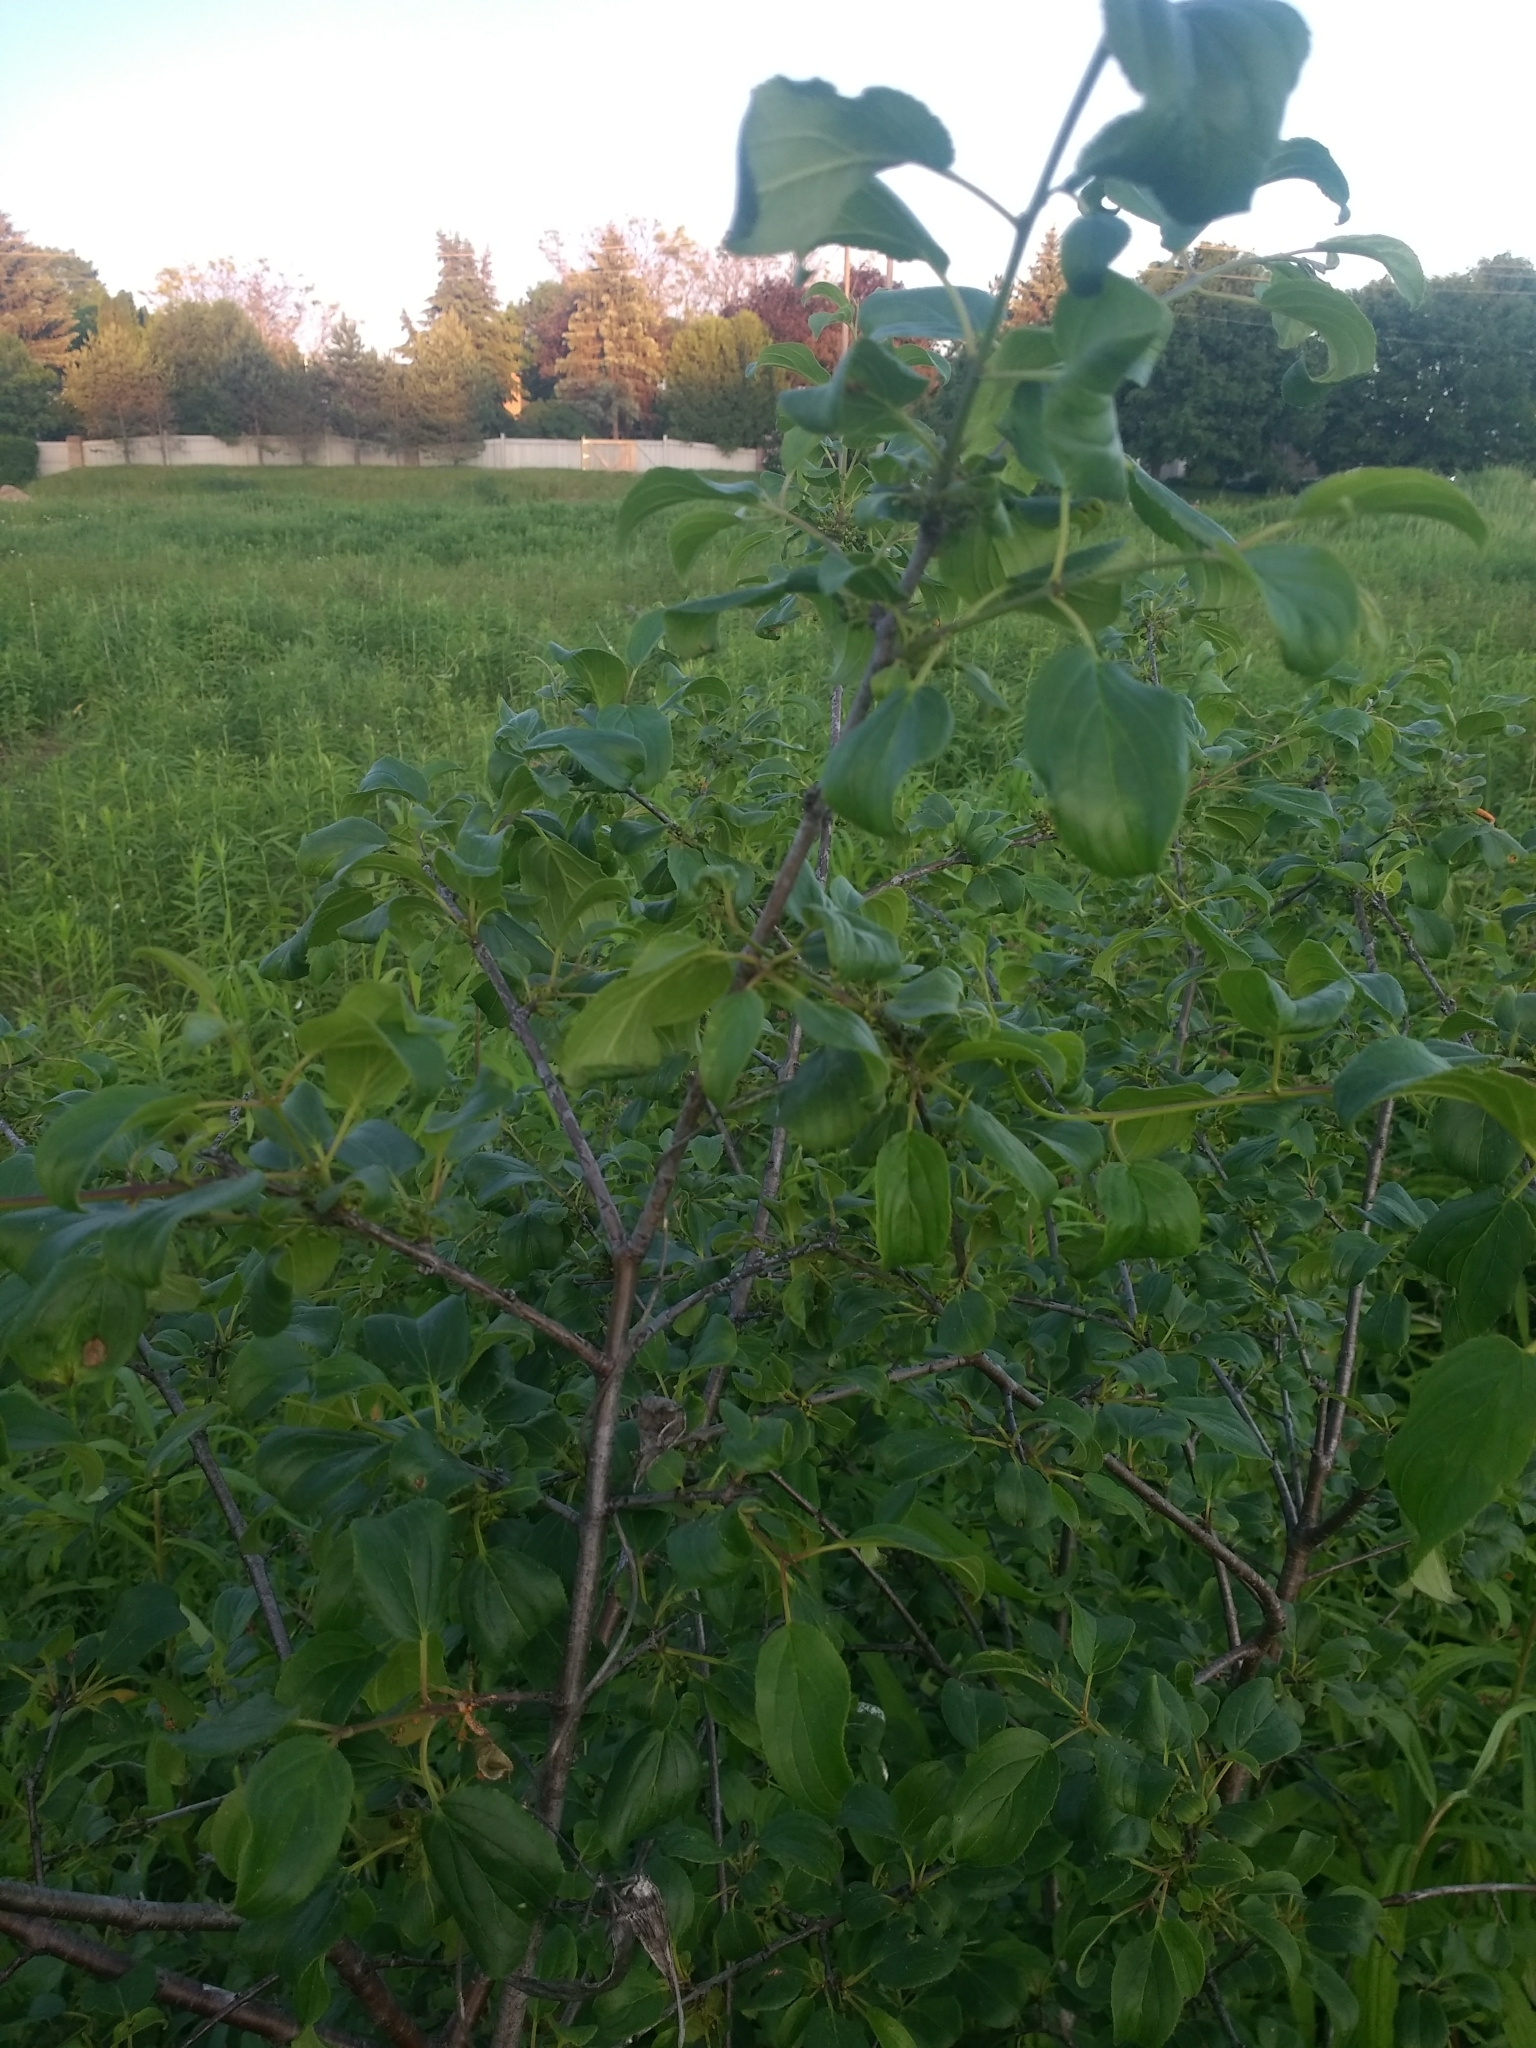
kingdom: Plantae
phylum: Tracheophyta
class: Magnoliopsida
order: Rosales
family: Rhamnaceae
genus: Rhamnus
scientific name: Rhamnus cathartica
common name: Common buckthorn
